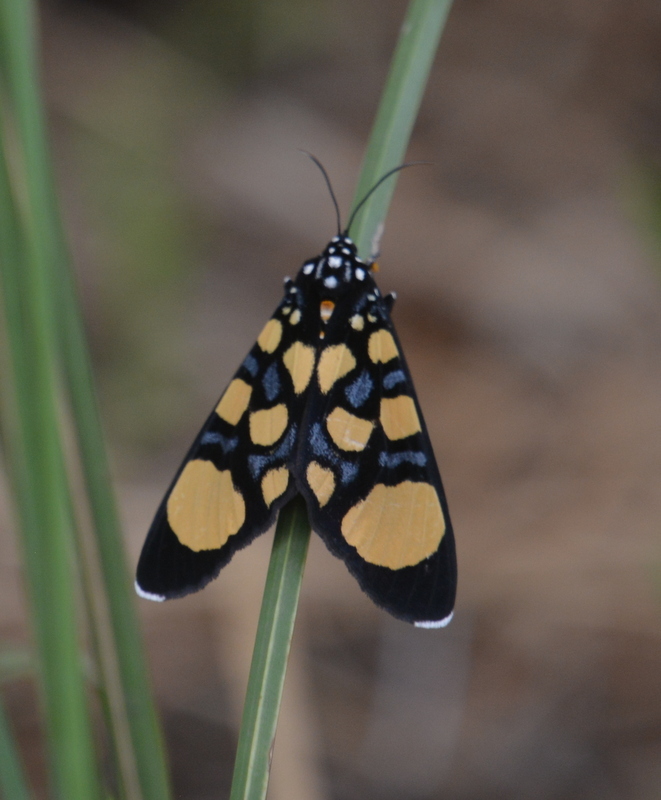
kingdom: Animalia
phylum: Arthropoda
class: Insecta
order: Lepidoptera
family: Noctuidae
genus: Heraclia
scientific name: Heraclia superba
